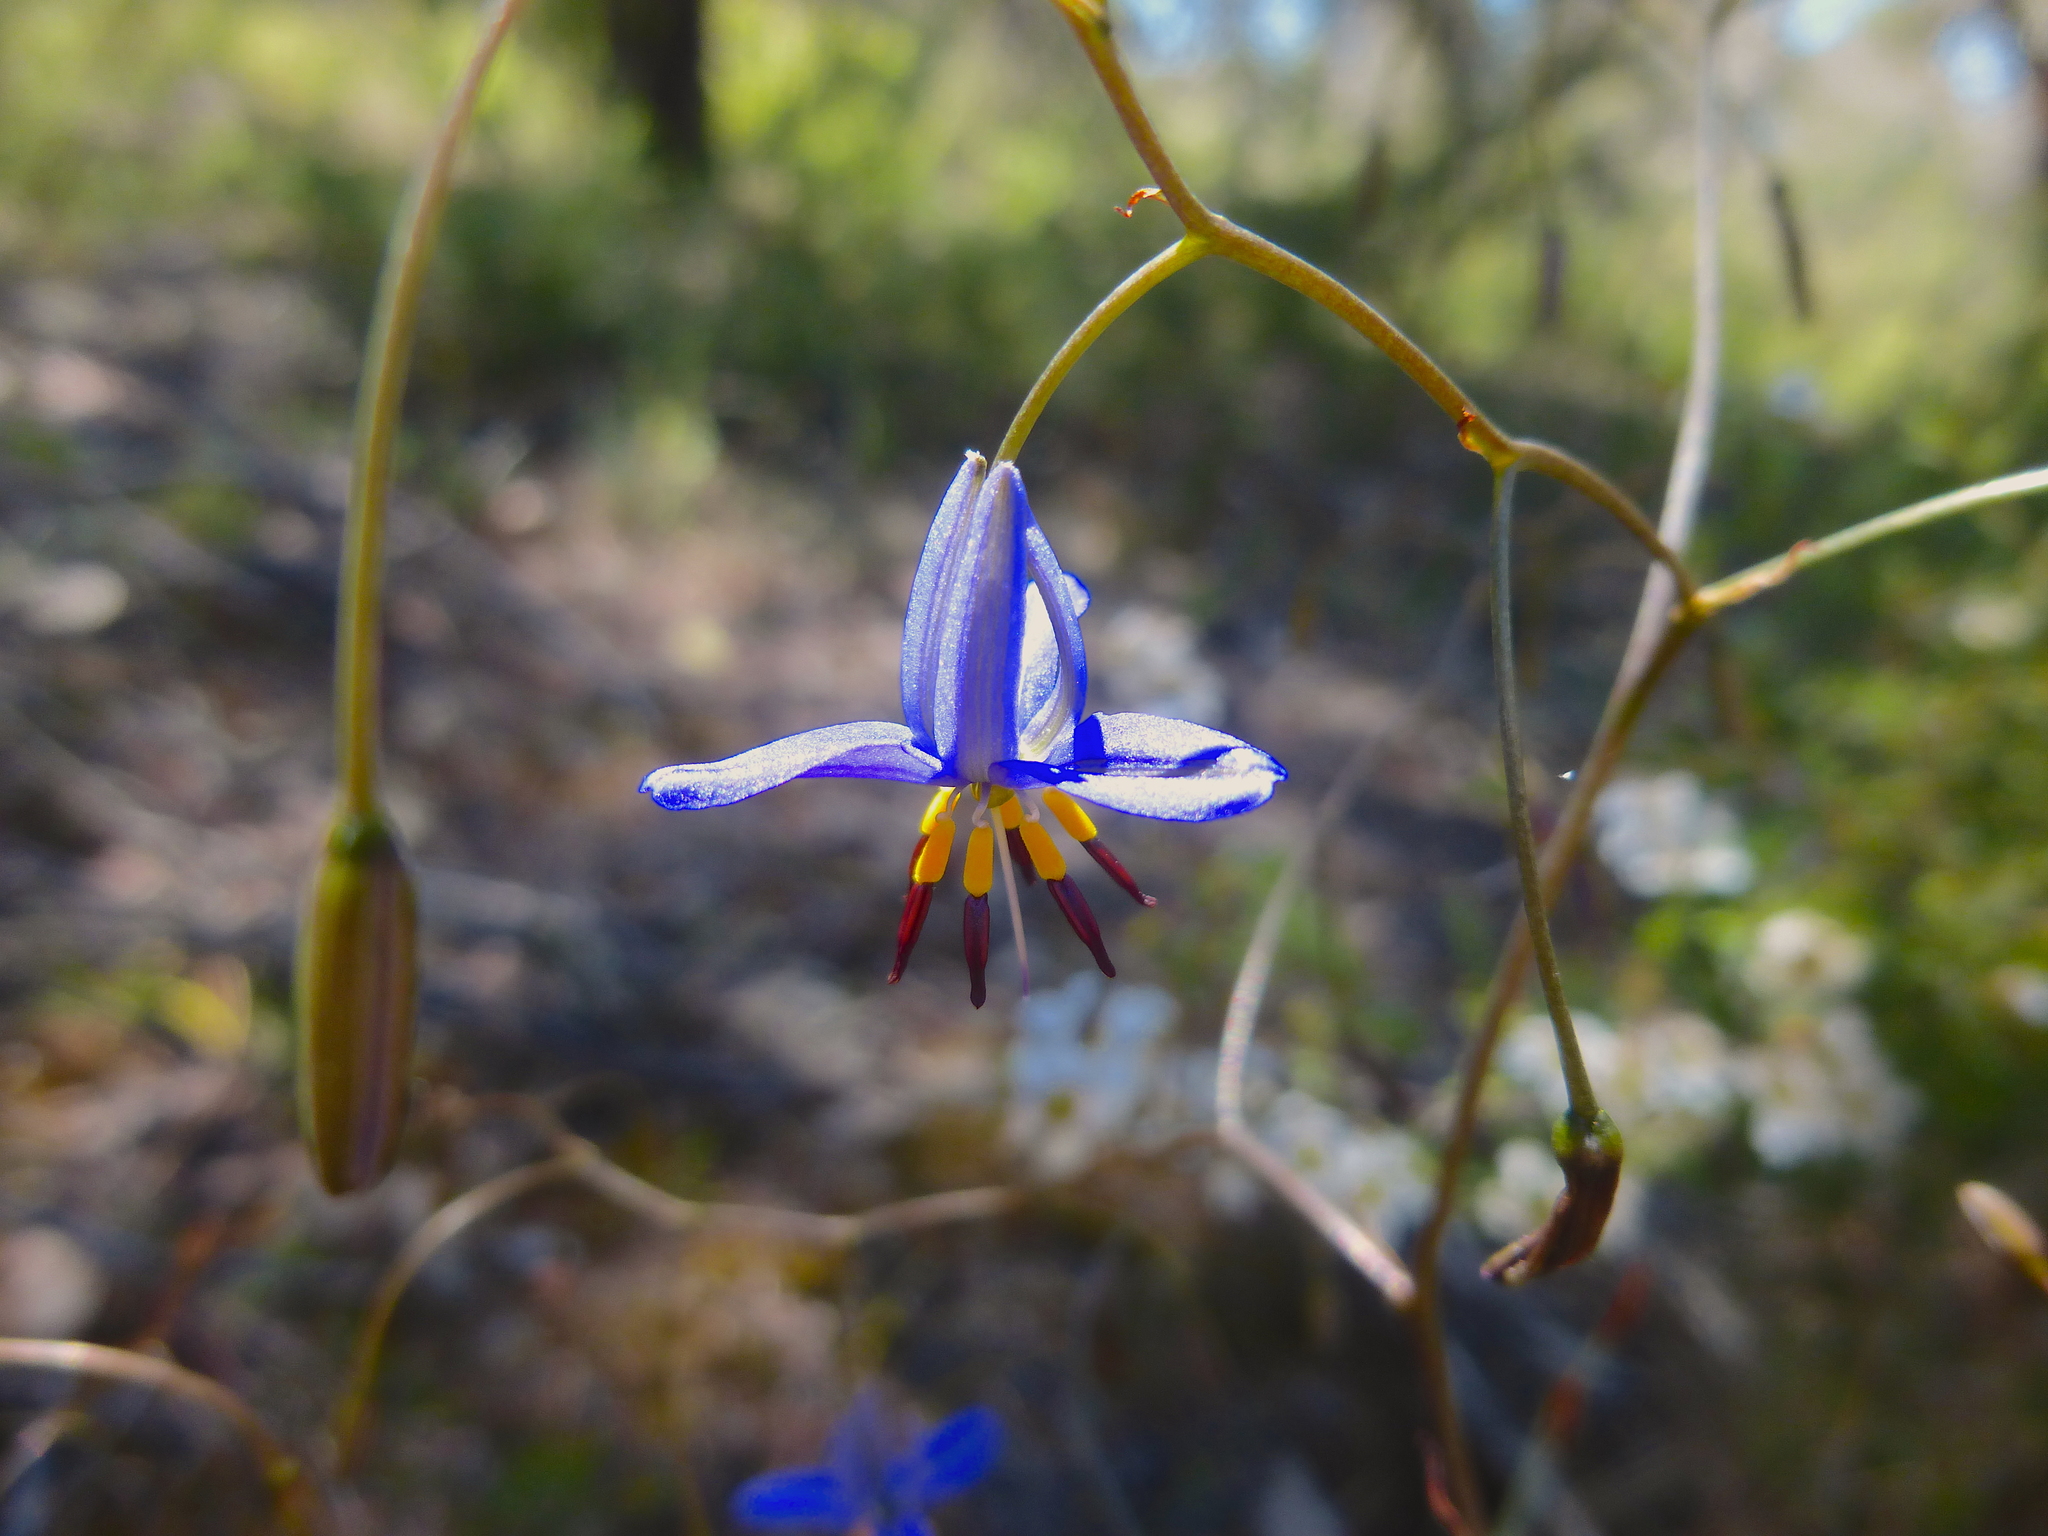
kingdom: Plantae
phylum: Tracheophyta
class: Liliopsida
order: Asparagales
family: Asphodelaceae
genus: Dianella
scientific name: Dianella revoluta
